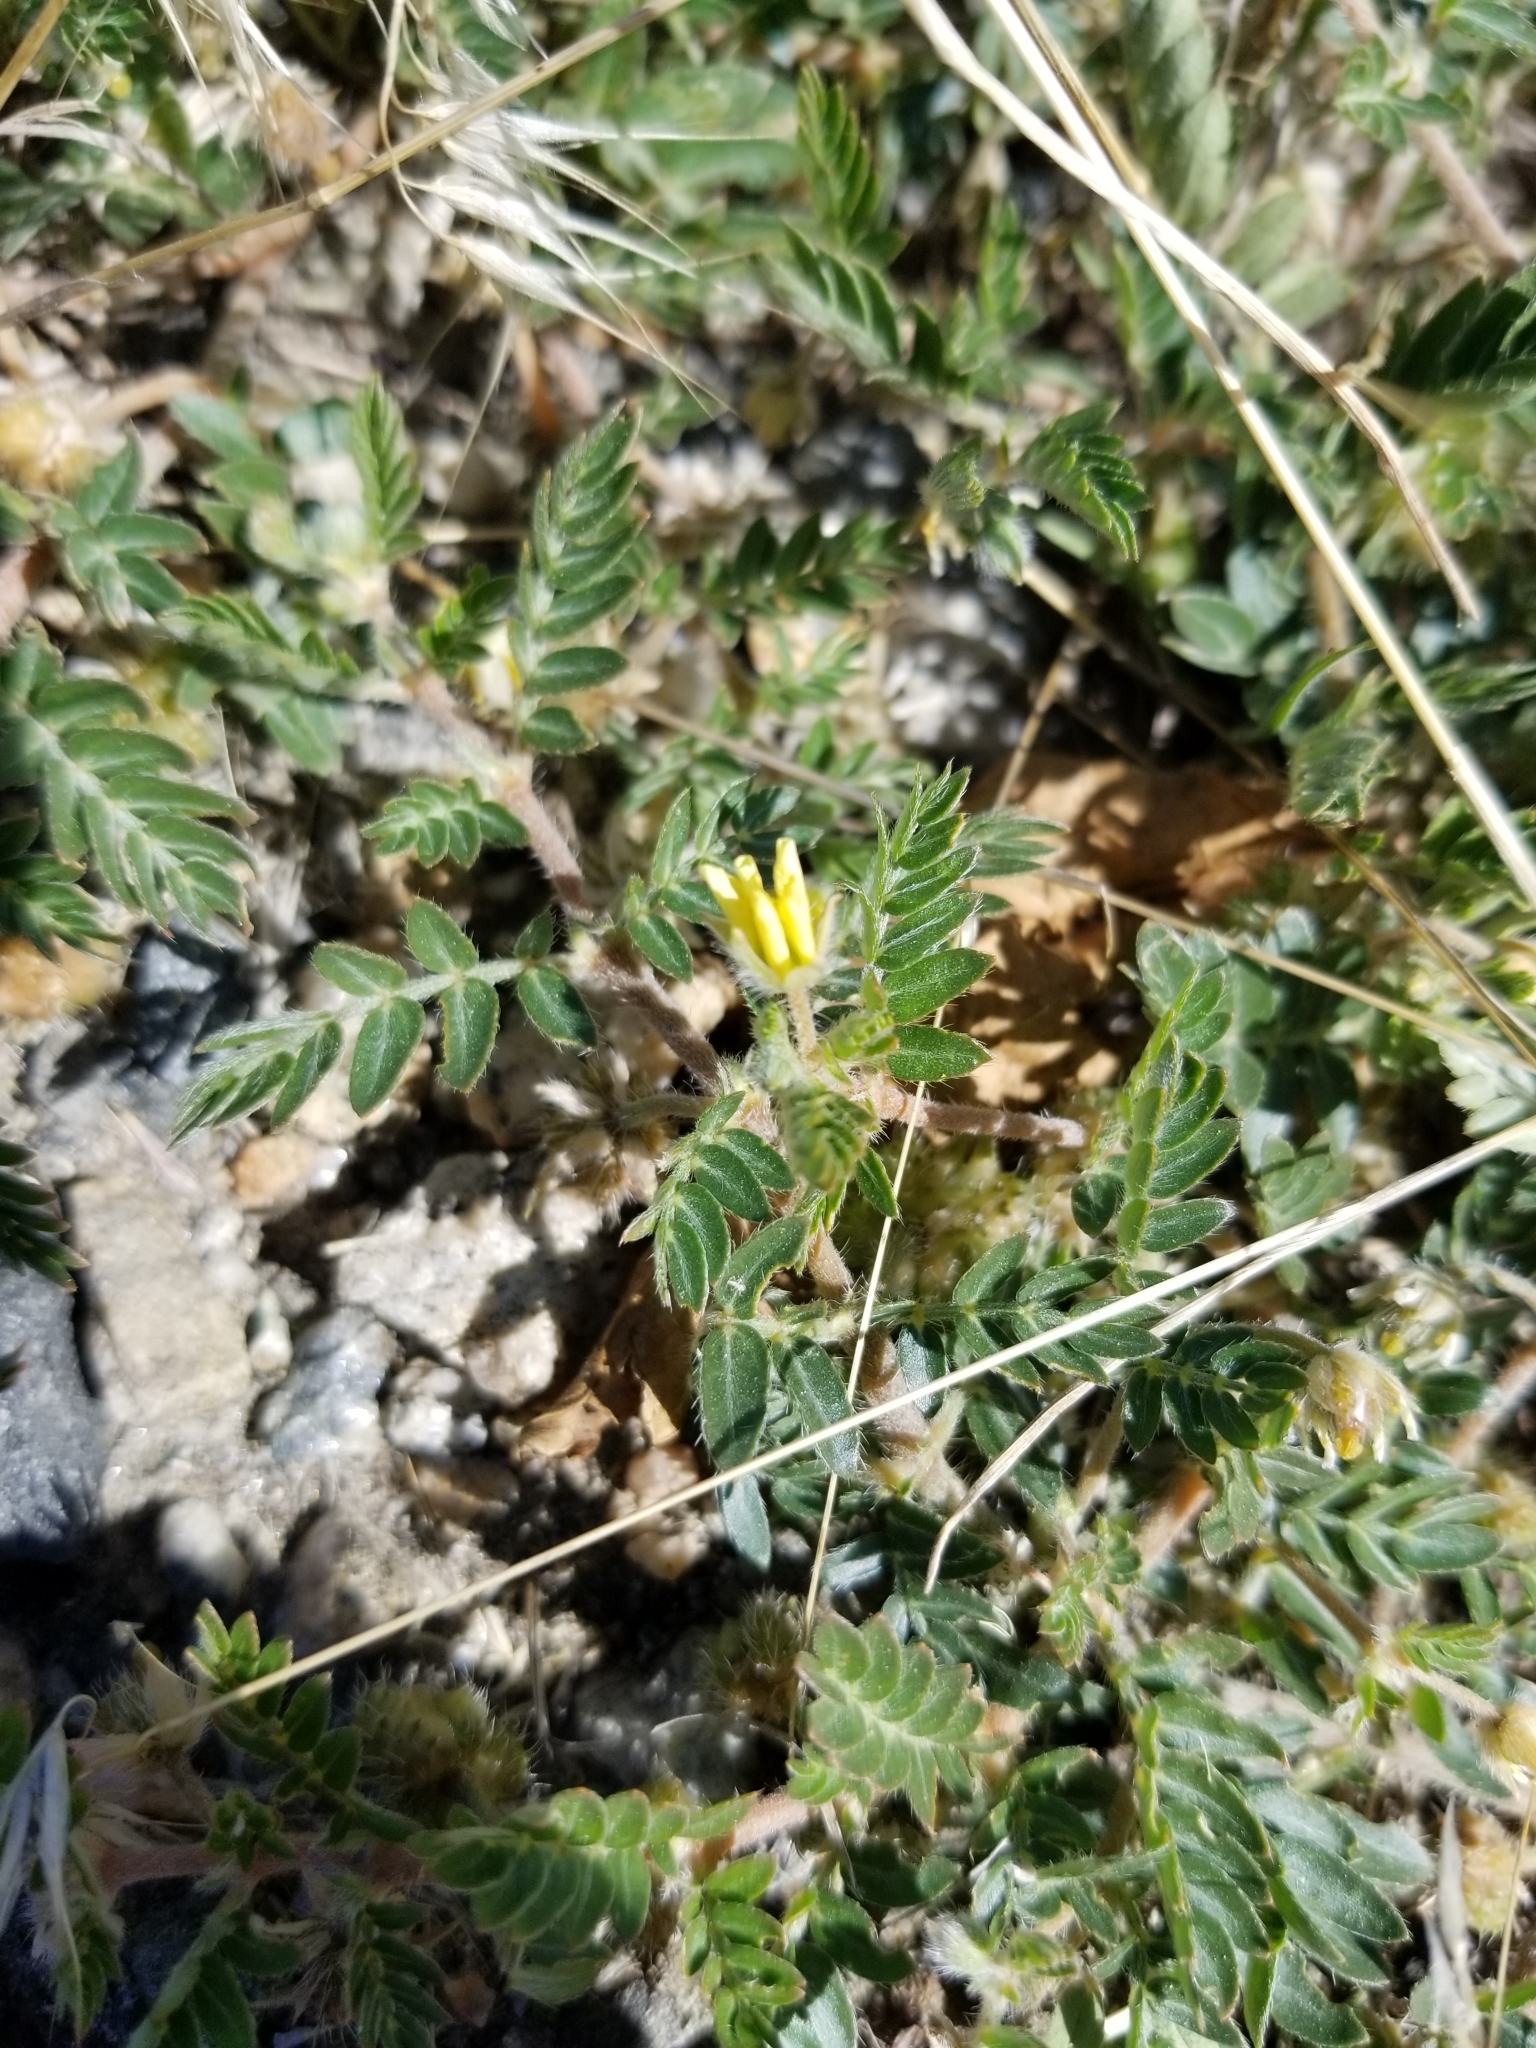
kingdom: Plantae
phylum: Tracheophyta
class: Magnoliopsida
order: Zygophyllales
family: Zygophyllaceae
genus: Tribulus
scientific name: Tribulus terrestris
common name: Puncturevine
